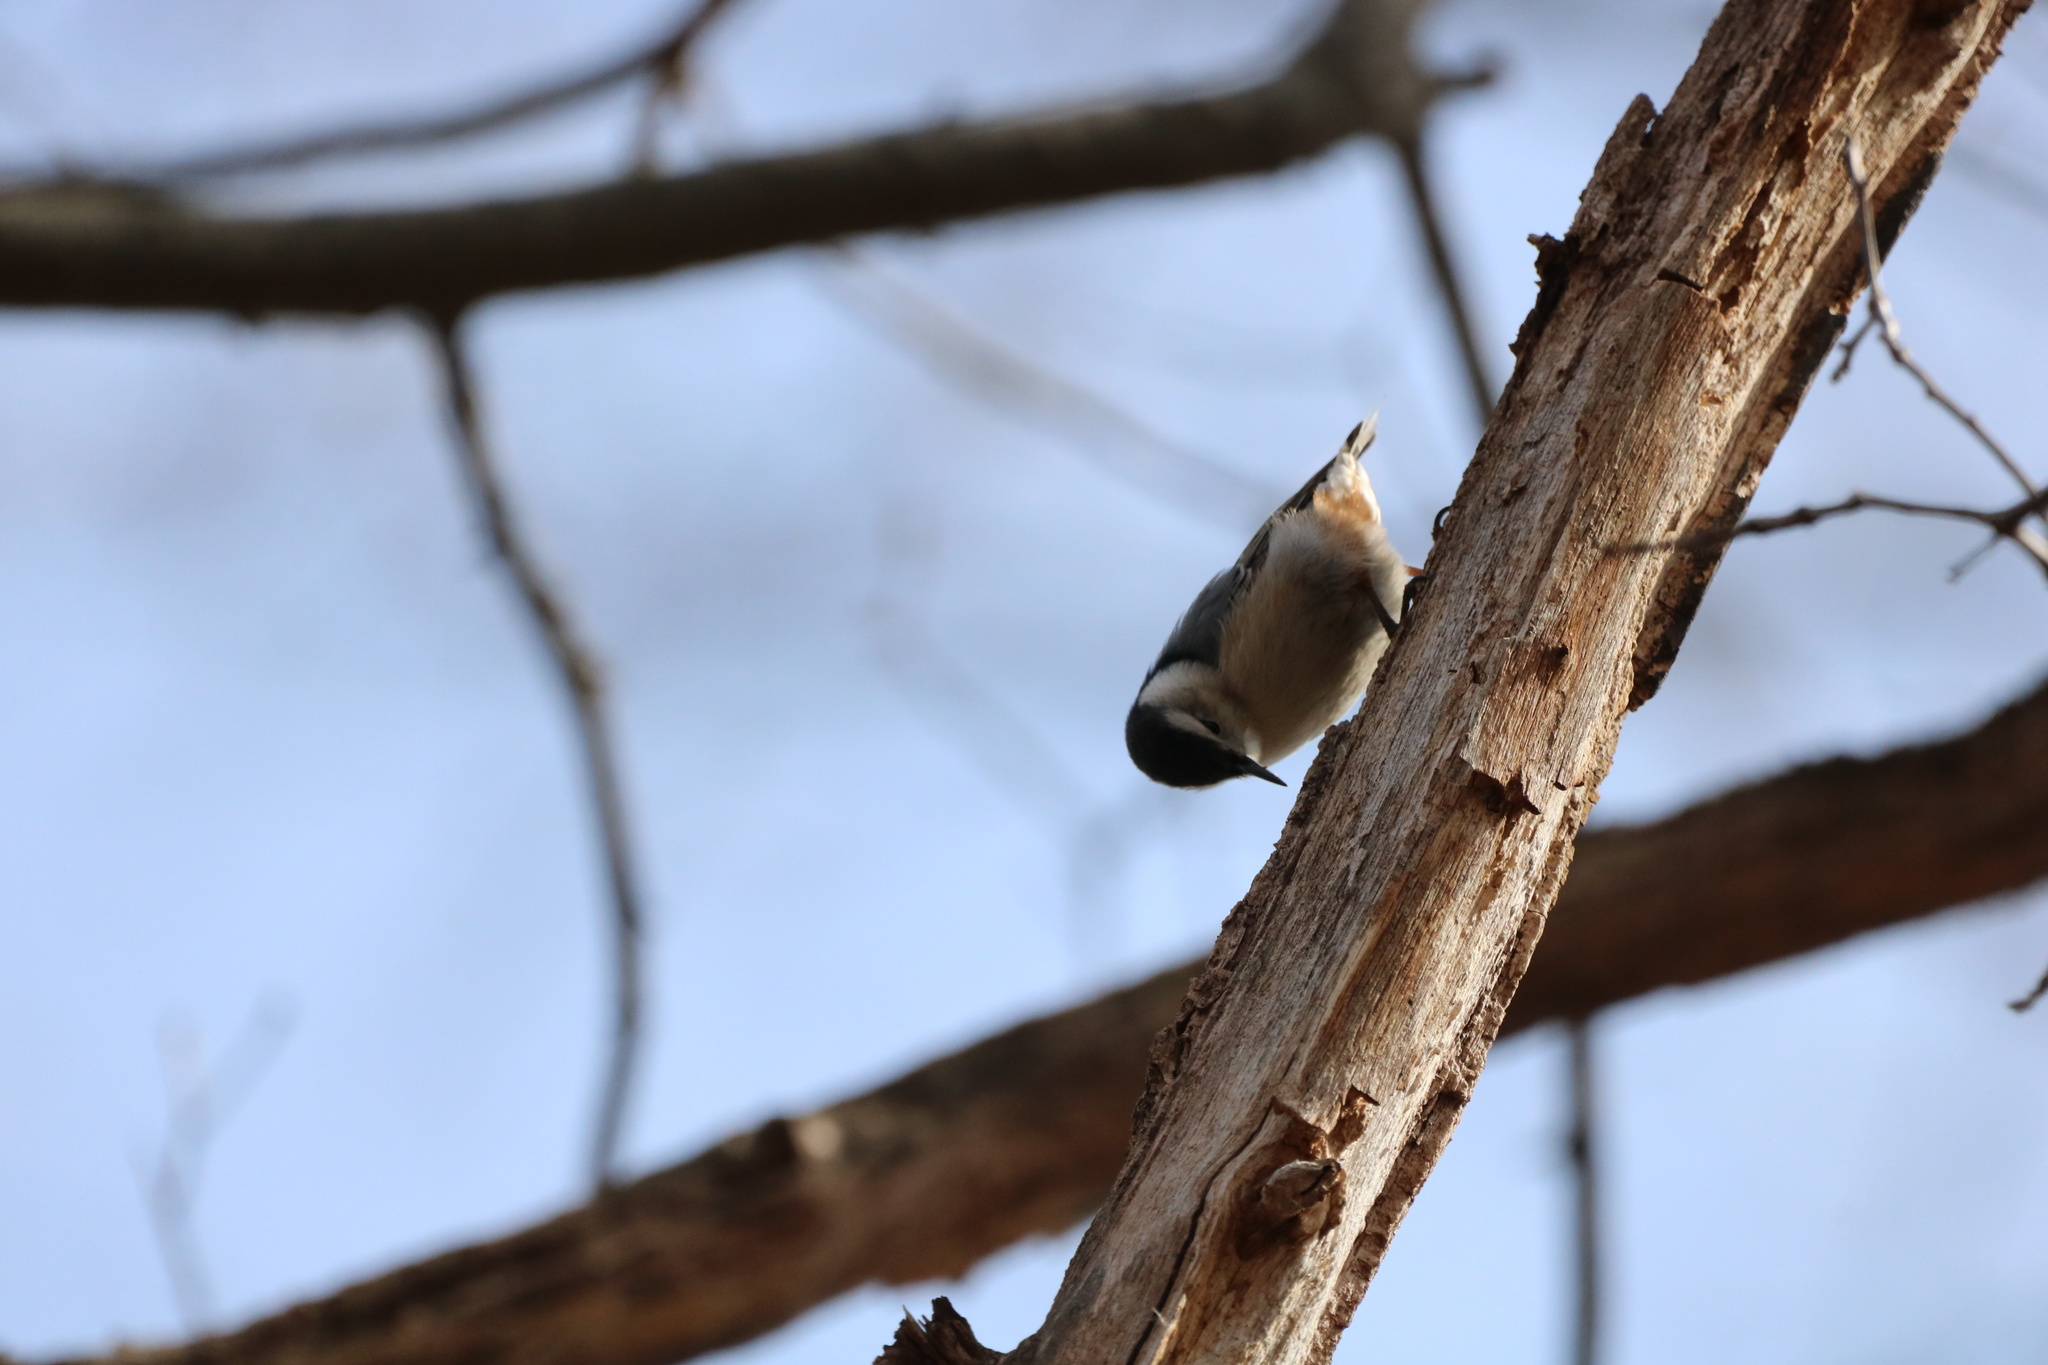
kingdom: Animalia
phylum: Chordata
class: Aves
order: Passeriformes
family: Sittidae
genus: Sitta
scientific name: Sitta carolinensis
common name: White-breasted nuthatch
